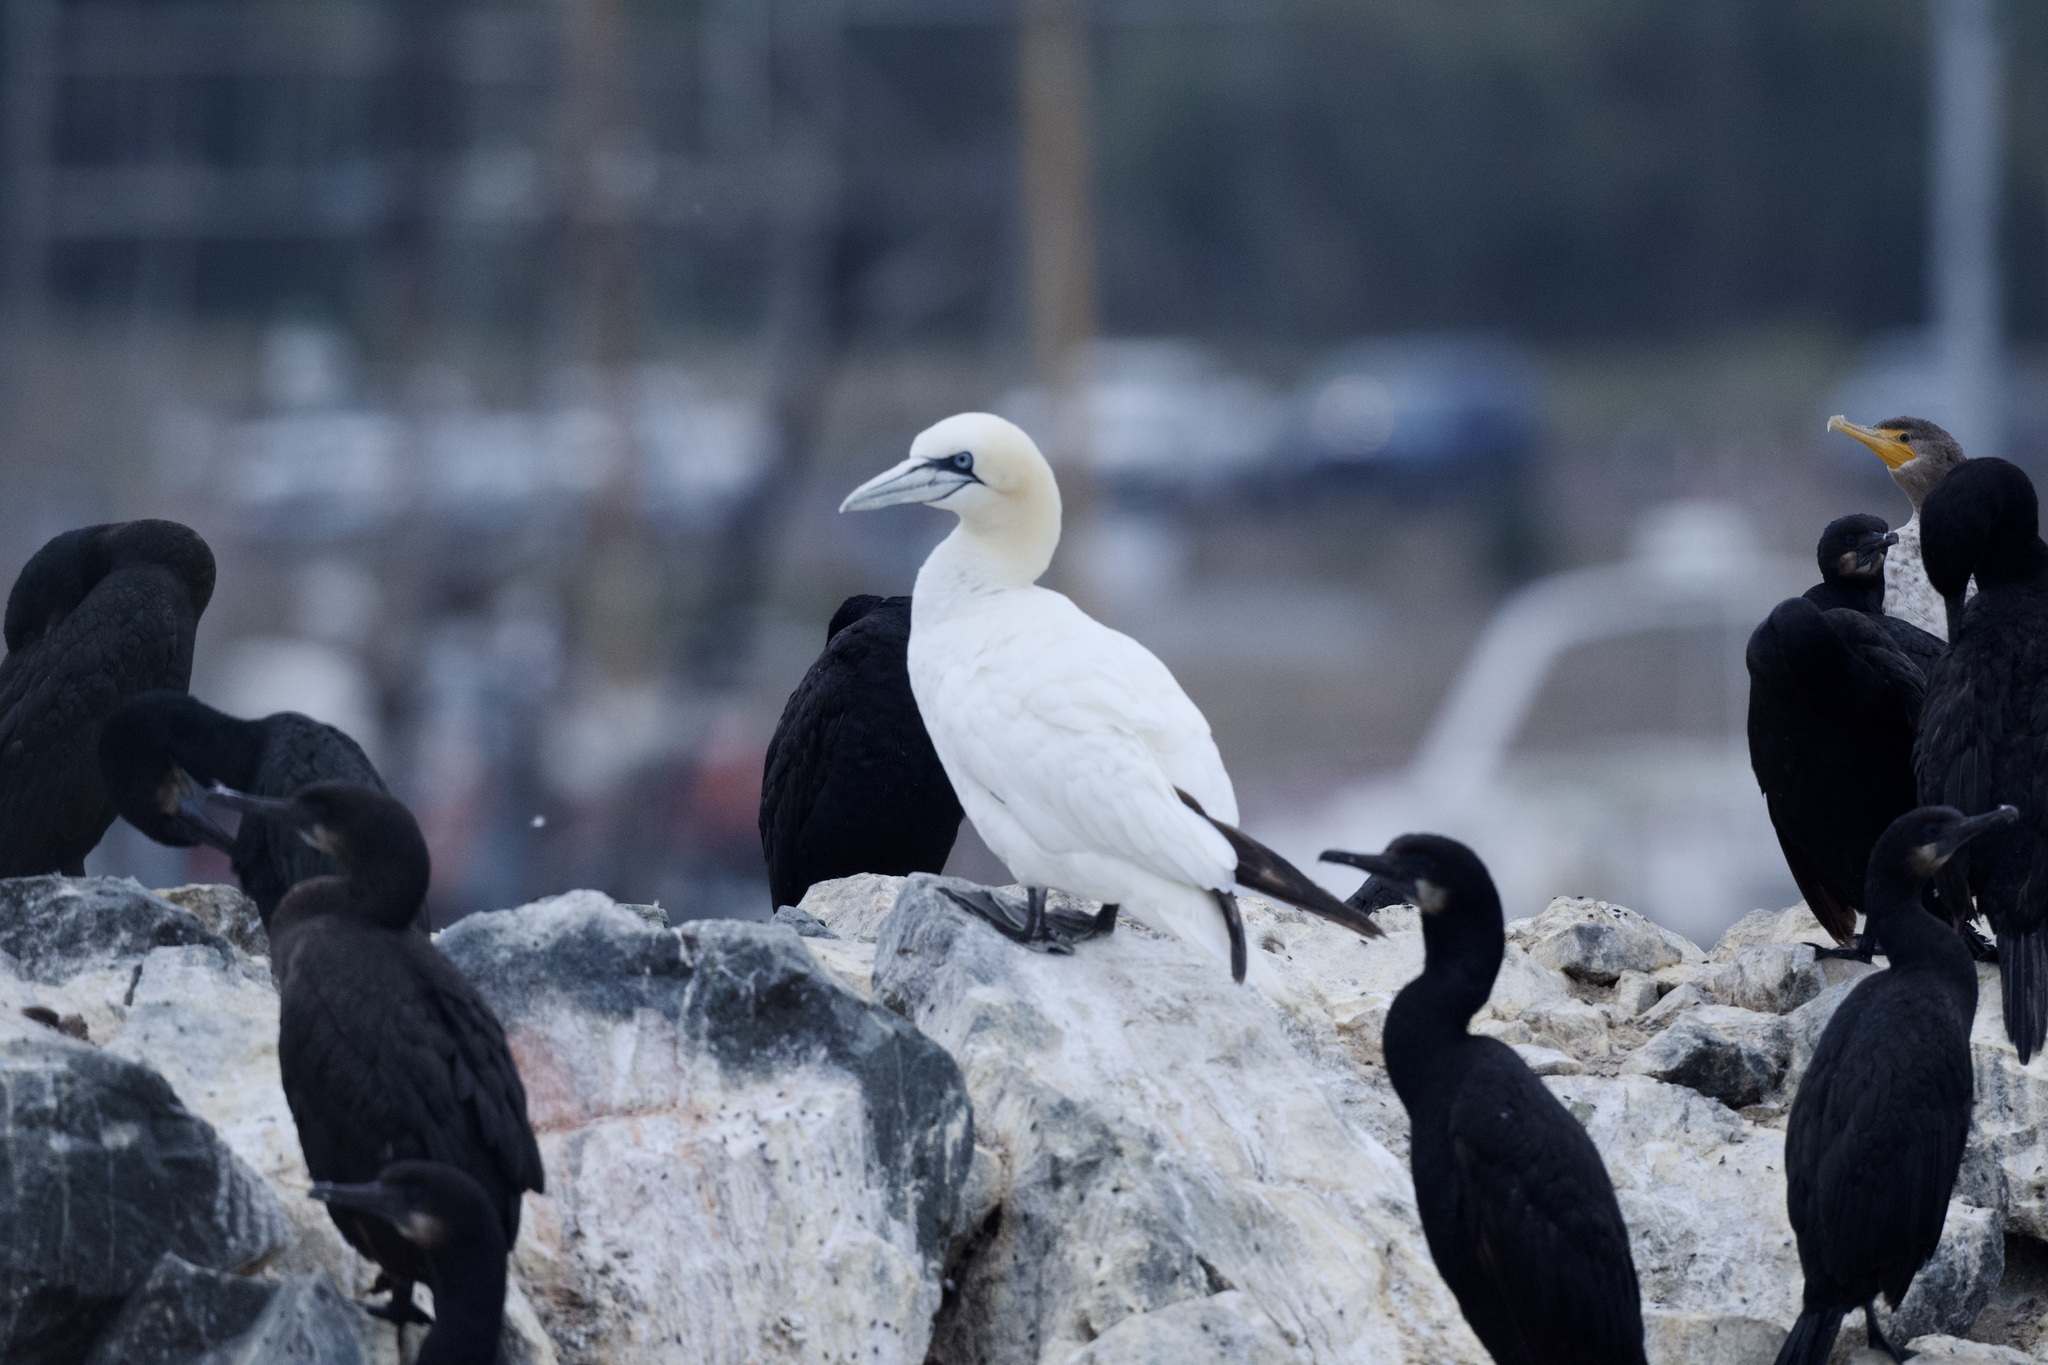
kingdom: Animalia
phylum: Chordata
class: Aves
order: Suliformes
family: Sulidae
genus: Morus
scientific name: Morus bassanus
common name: Northern gannet
